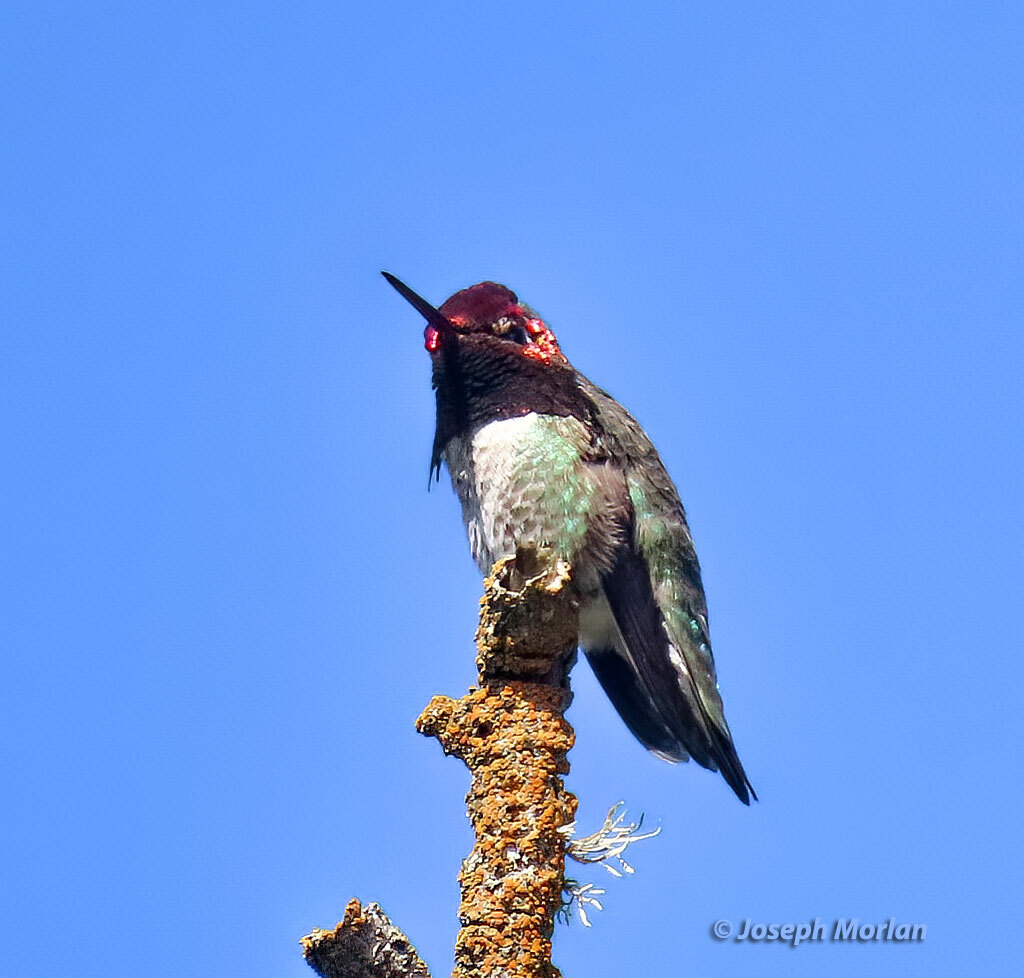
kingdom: Animalia
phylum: Chordata
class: Aves
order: Apodiformes
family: Trochilidae
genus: Calypte
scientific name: Calypte anna
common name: Anna's hummingbird
